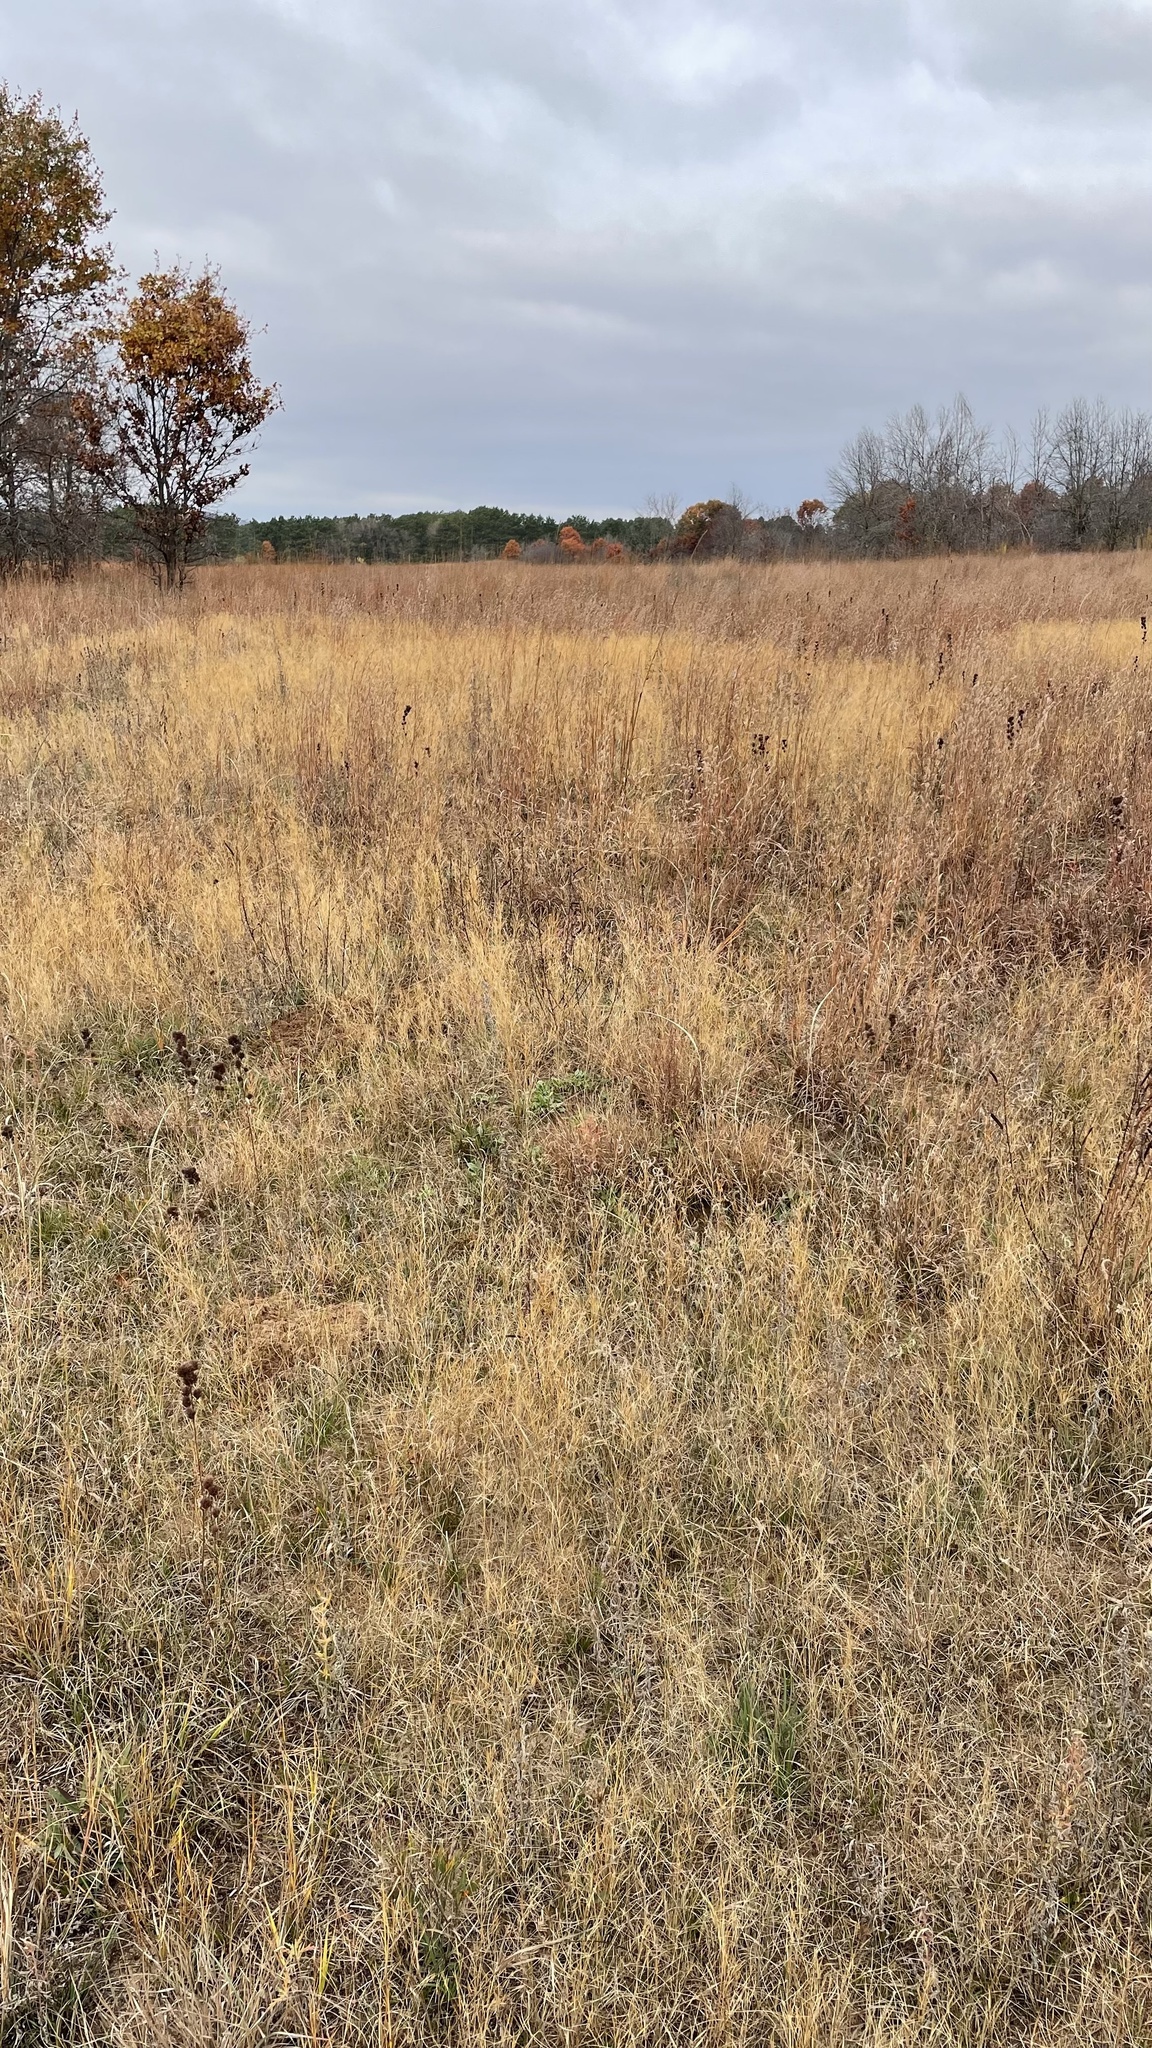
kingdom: Plantae
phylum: Tracheophyta
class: Liliopsida
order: Poales
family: Poaceae
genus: Aristida
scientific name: Aristida tuberculosa
